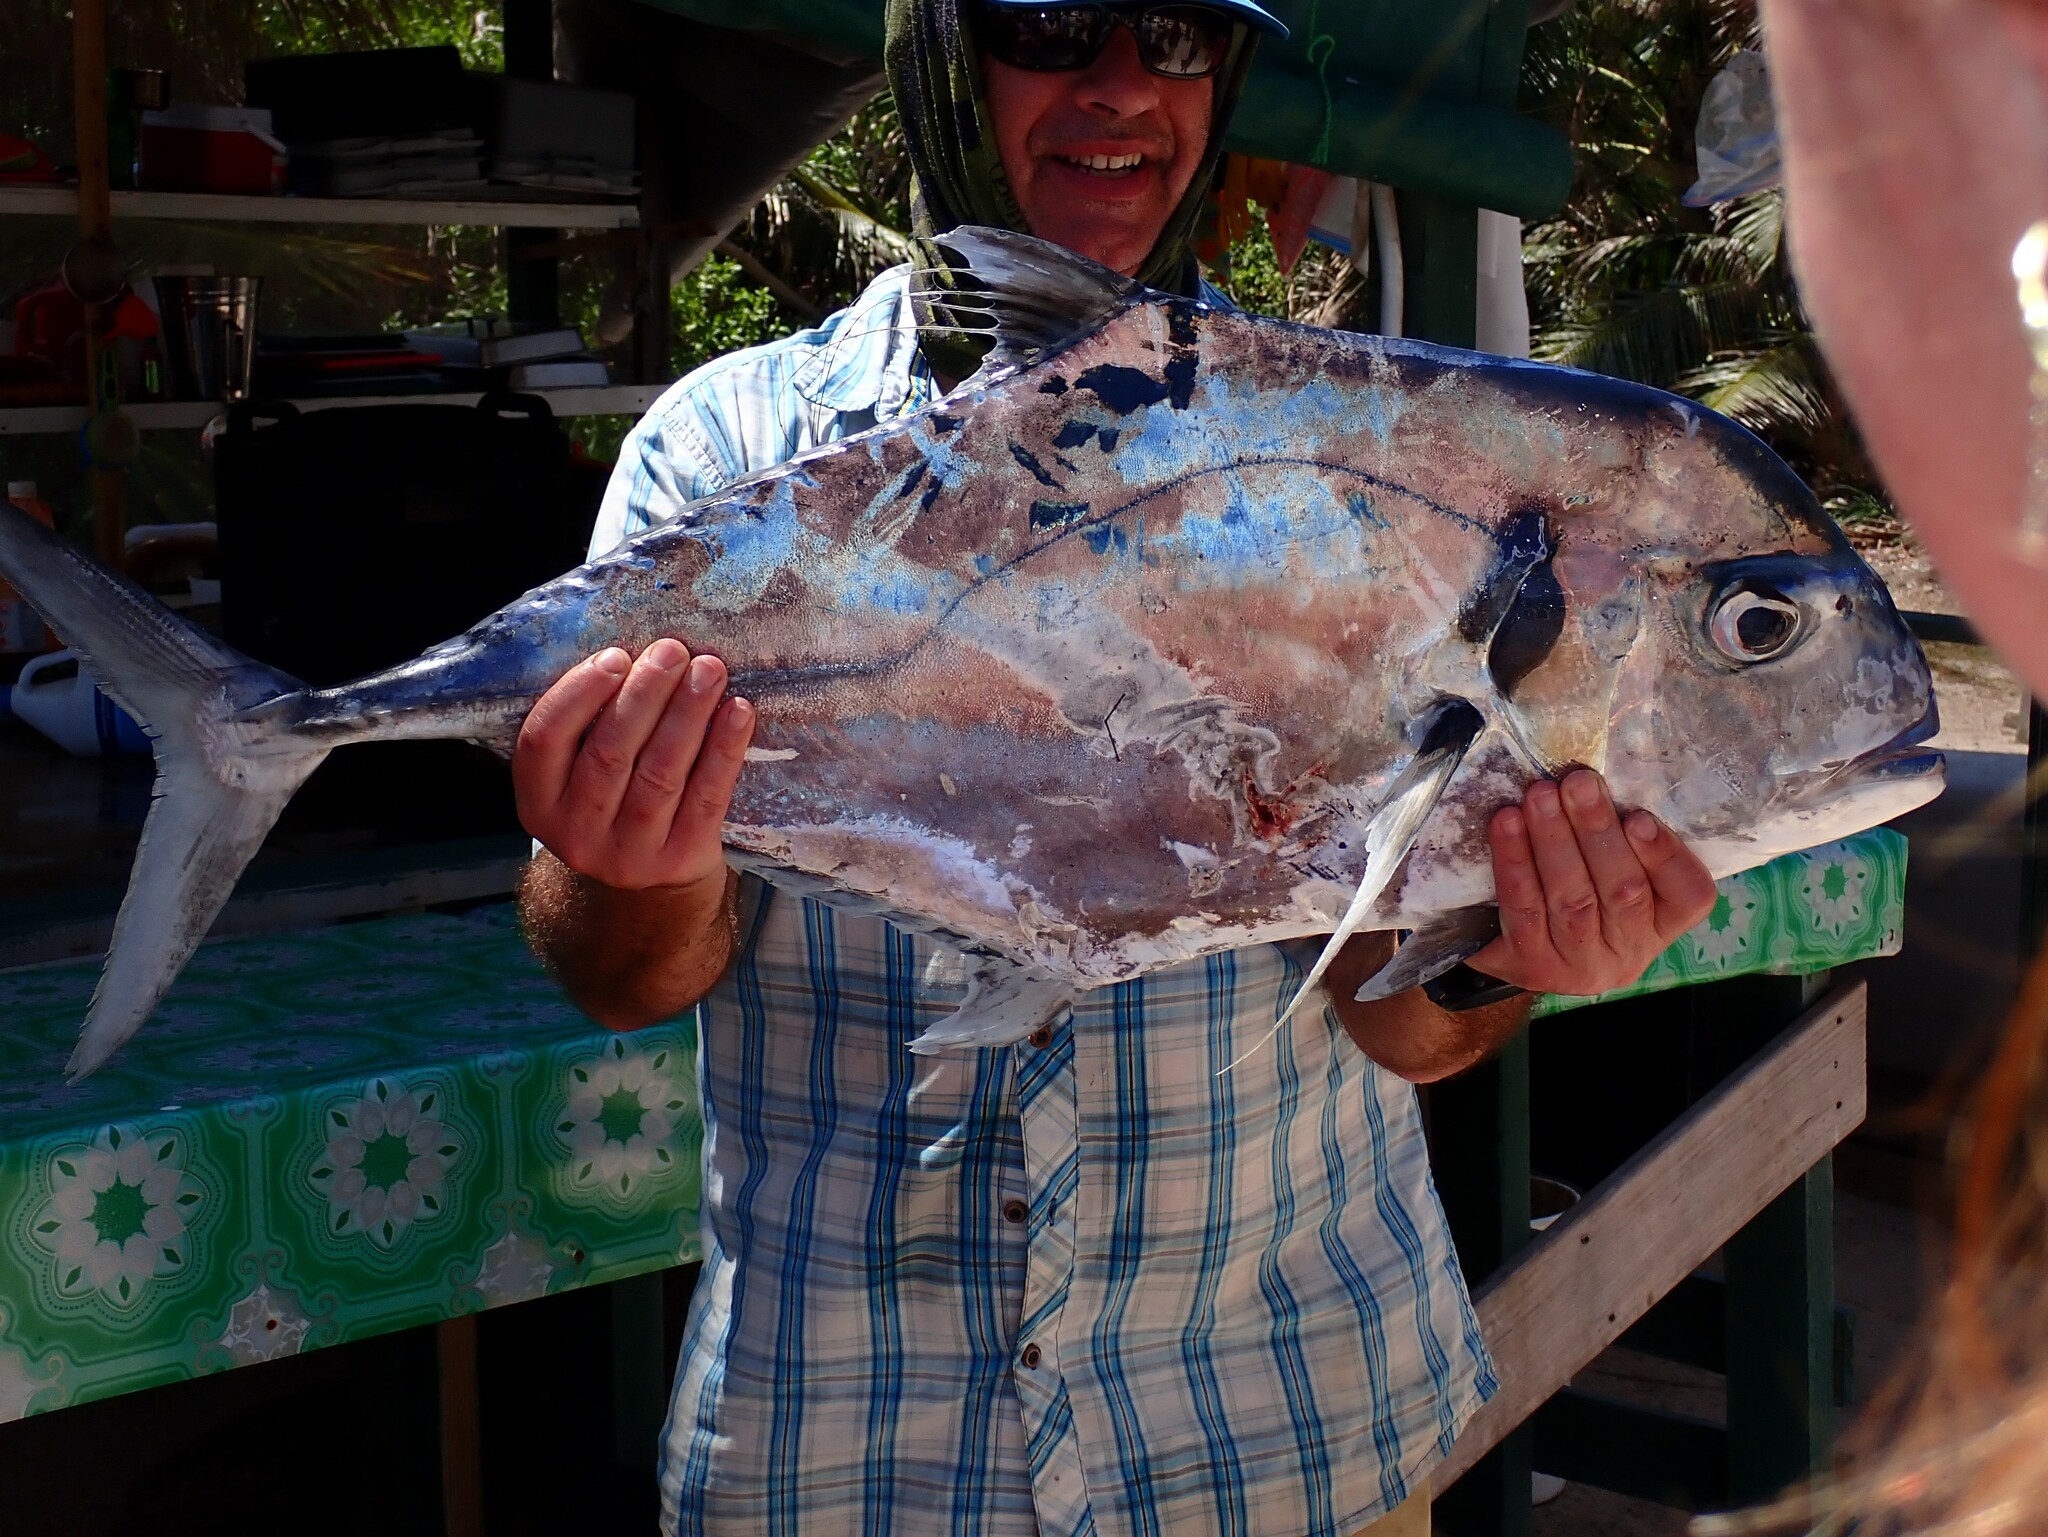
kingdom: Animalia
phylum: Chordata
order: Perciformes
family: Carangidae
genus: Alectis
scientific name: Alectis ciliaris
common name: African pompano
